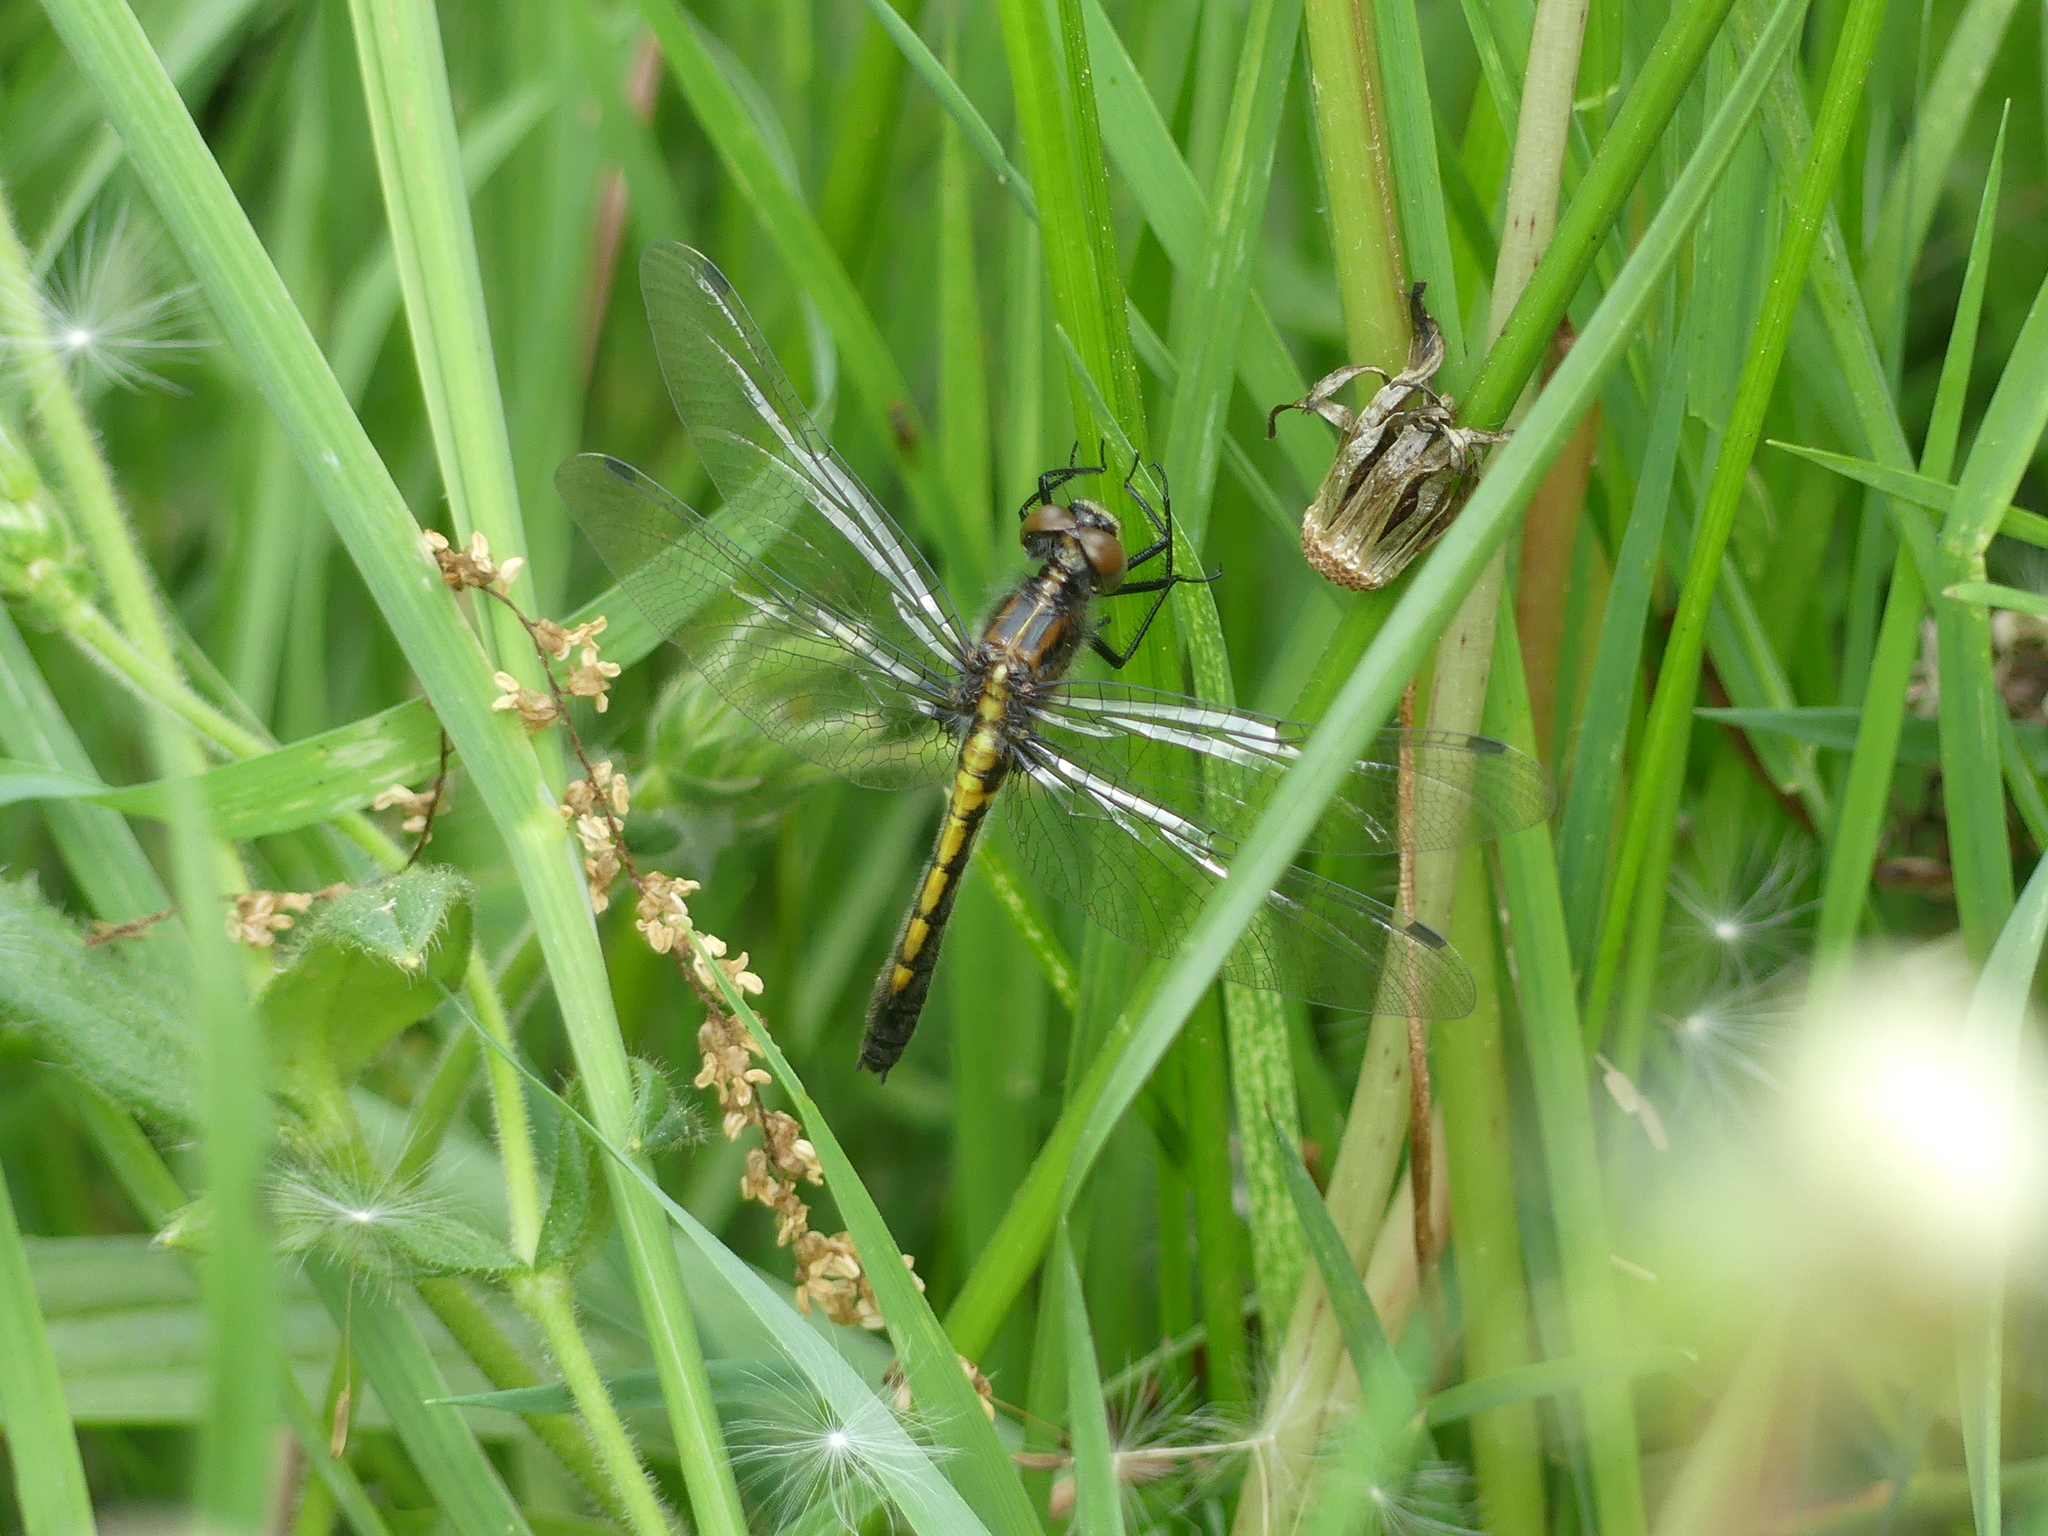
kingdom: Animalia
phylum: Arthropoda
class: Insecta
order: Odonata
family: Libellulidae
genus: Leucorrhinia
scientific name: Leucorrhinia intacta
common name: Dot-tailed whiteface
